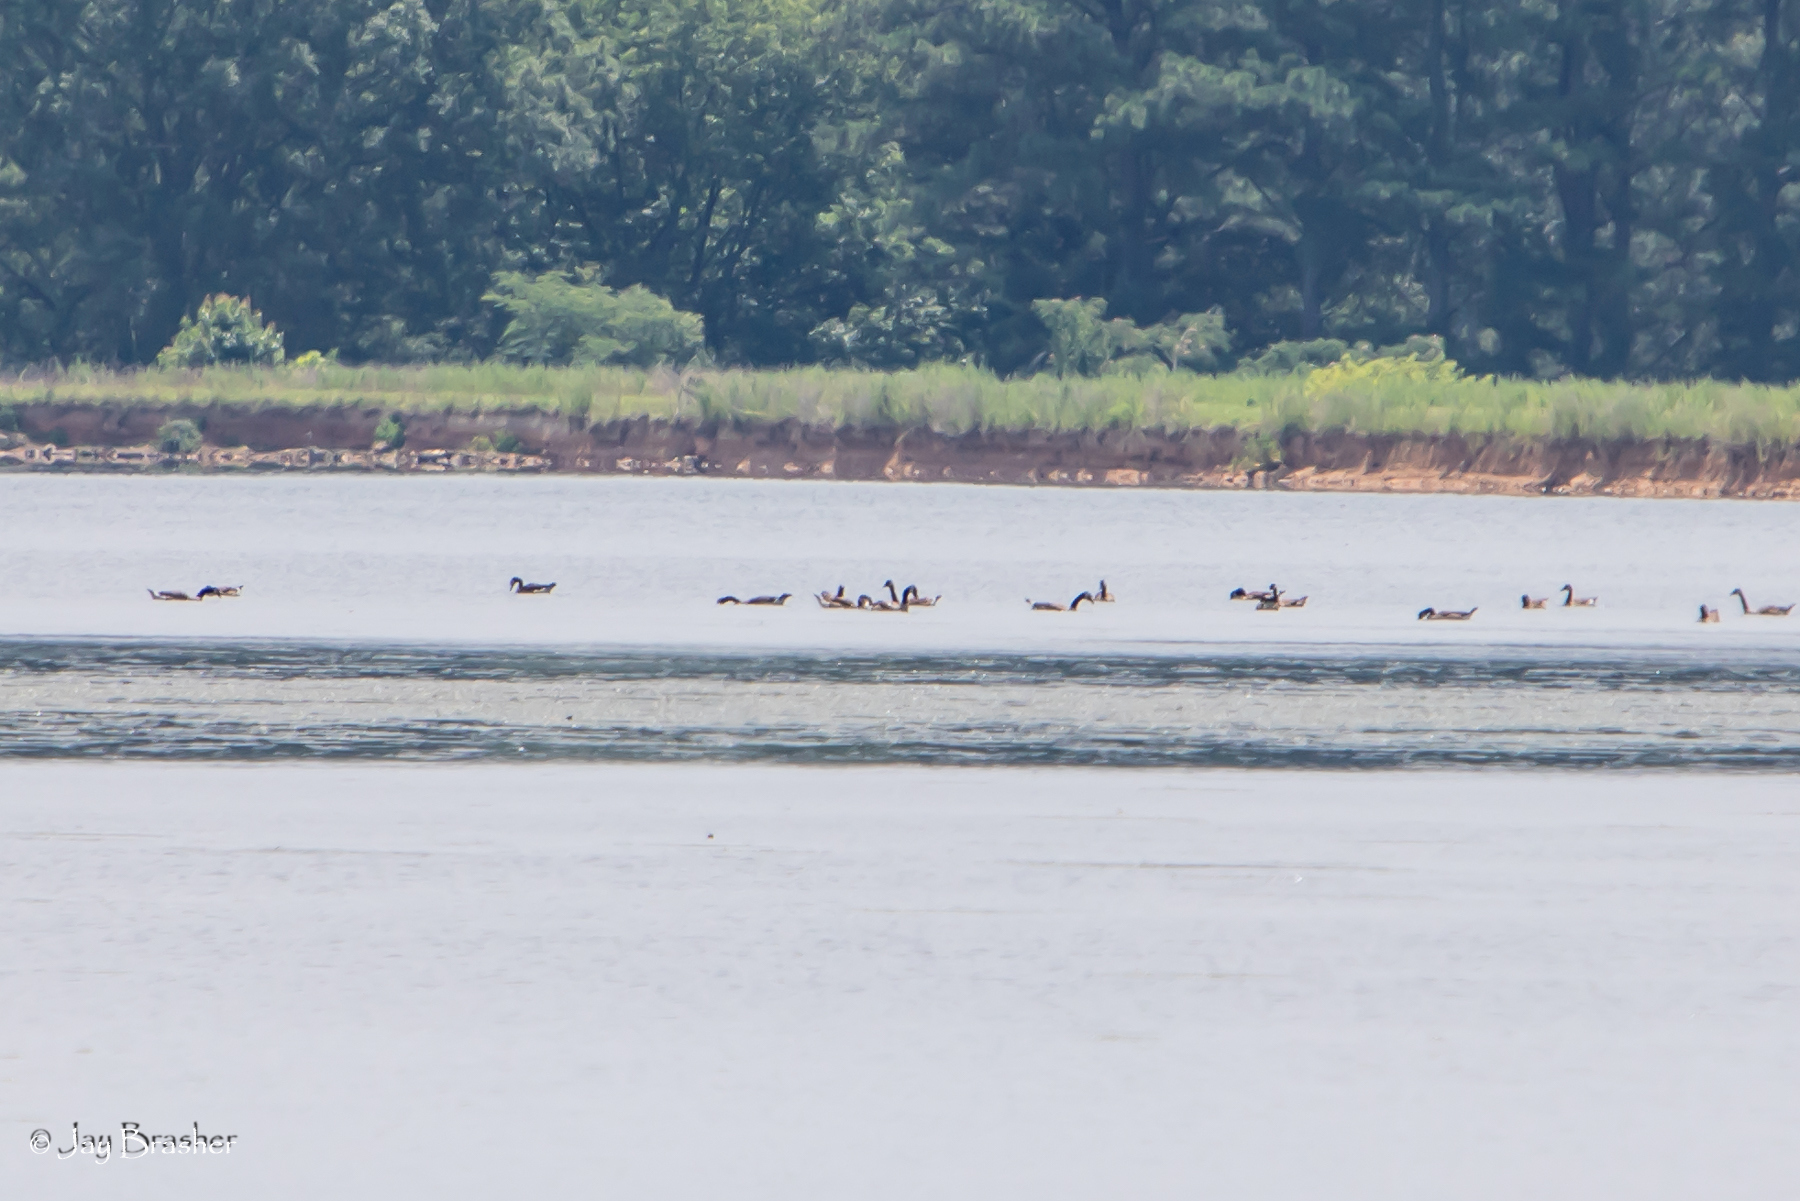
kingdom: Animalia
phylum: Chordata
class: Aves
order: Anseriformes
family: Anatidae
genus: Branta
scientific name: Branta canadensis
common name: Canada goose
